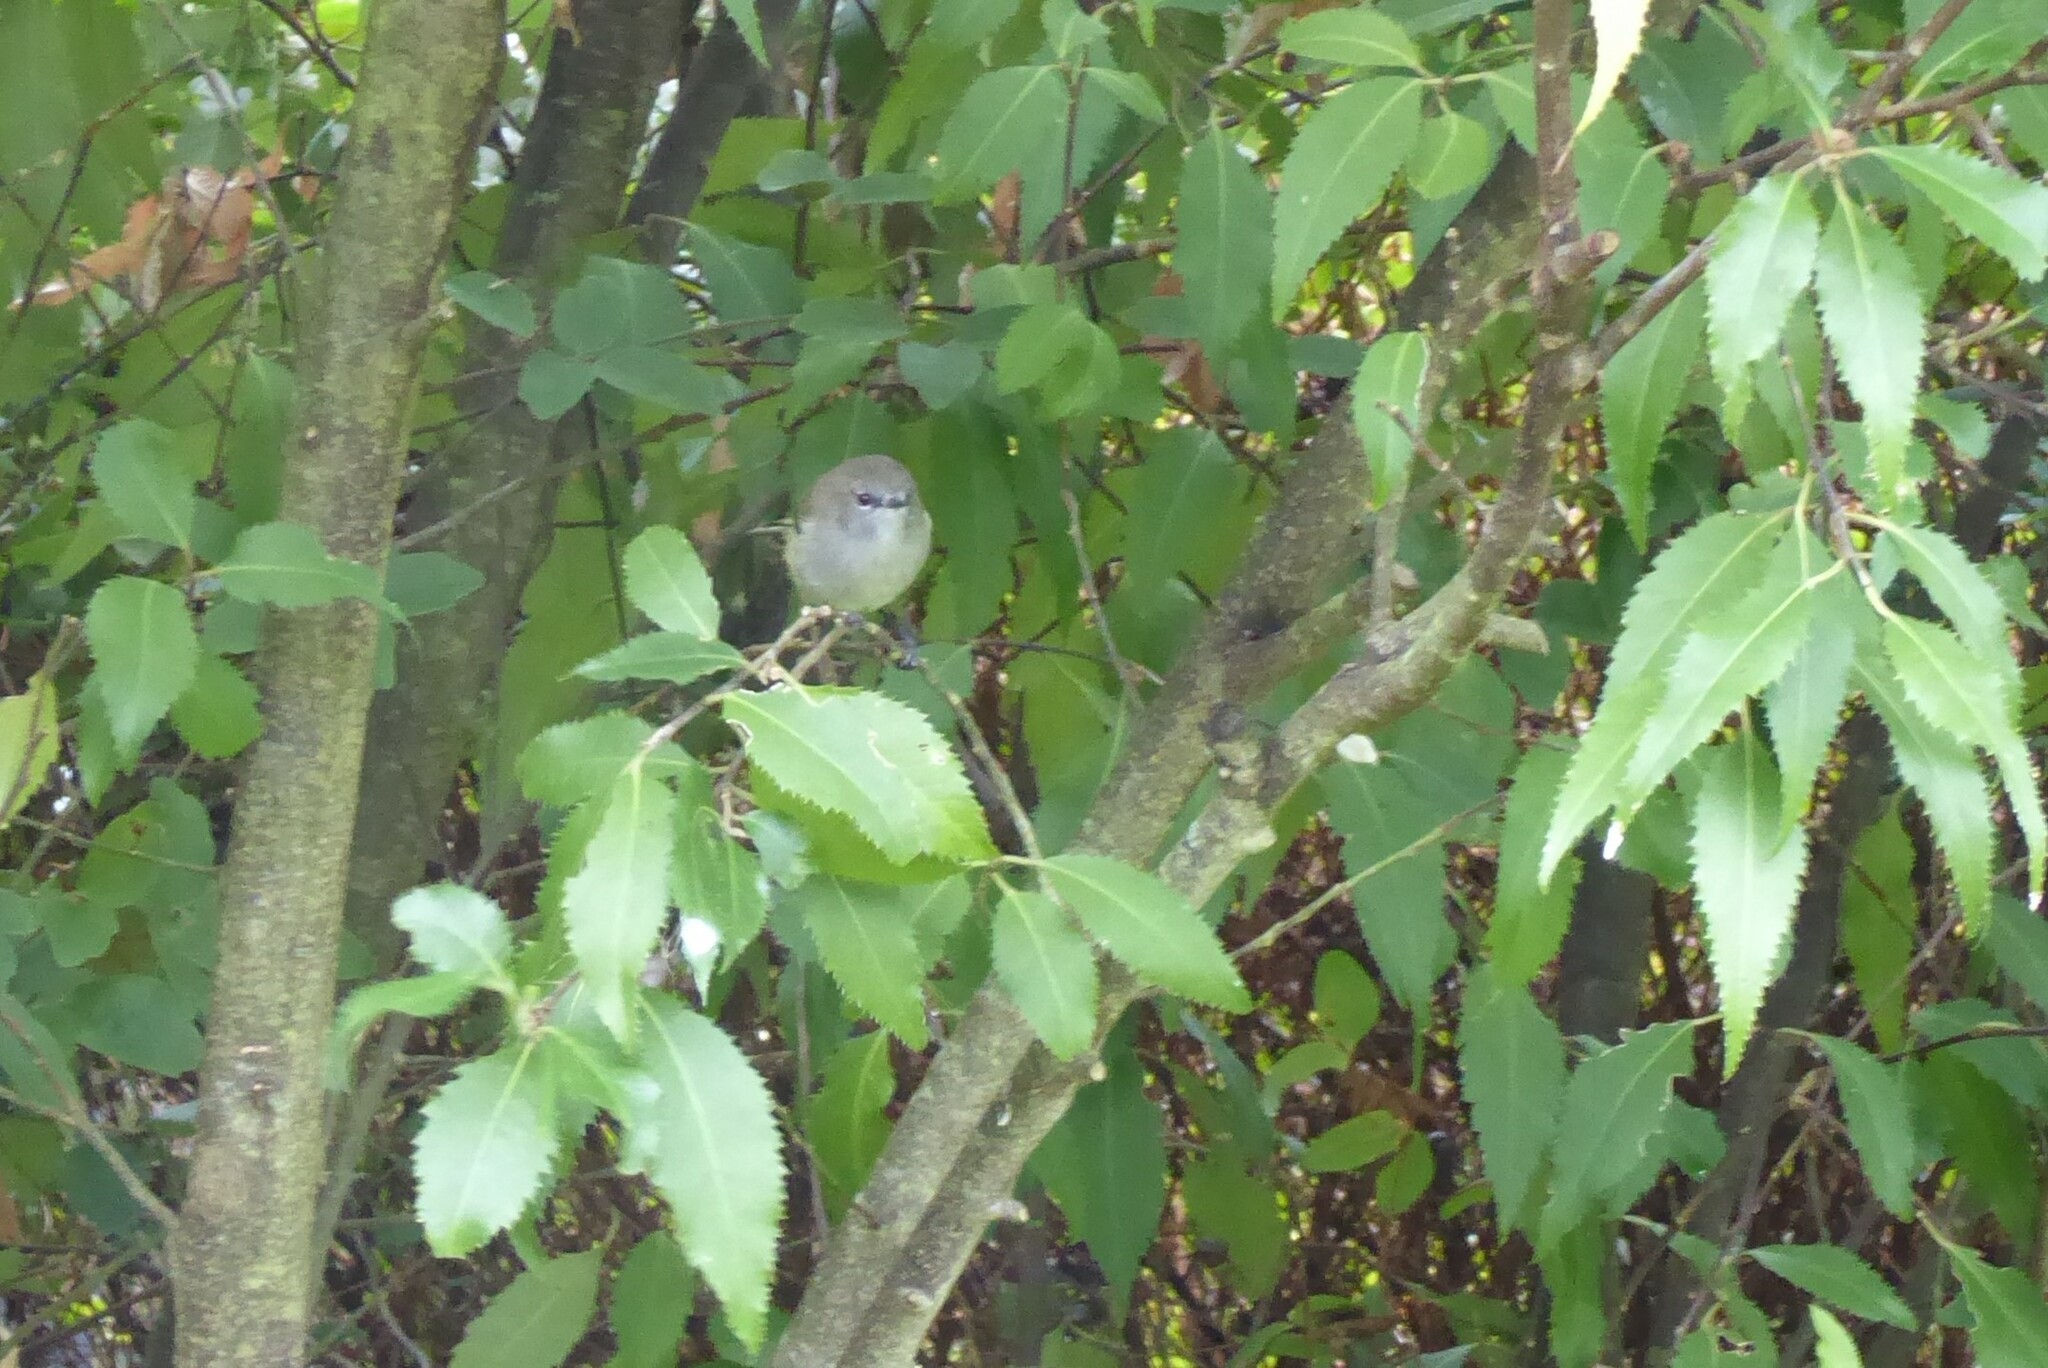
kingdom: Animalia
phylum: Chordata
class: Aves
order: Passeriformes
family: Acanthizidae
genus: Gerygone
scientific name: Gerygone igata
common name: Grey gerygone
